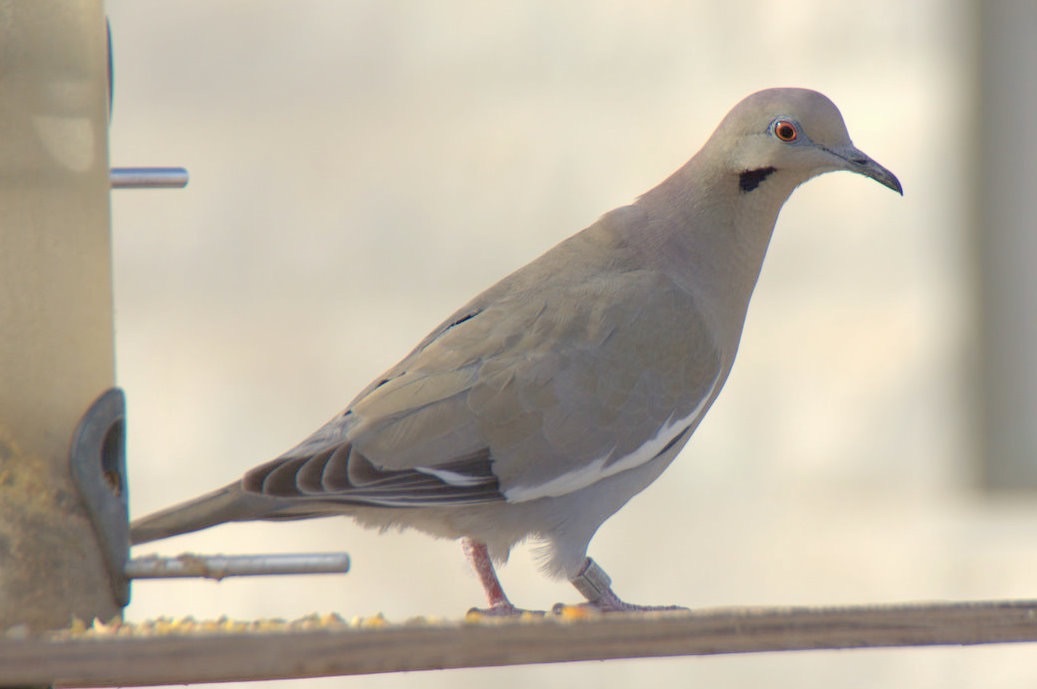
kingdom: Animalia
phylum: Chordata
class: Aves
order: Columbiformes
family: Columbidae
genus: Zenaida
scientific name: Zenaida asiatica
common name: White-winged dove
